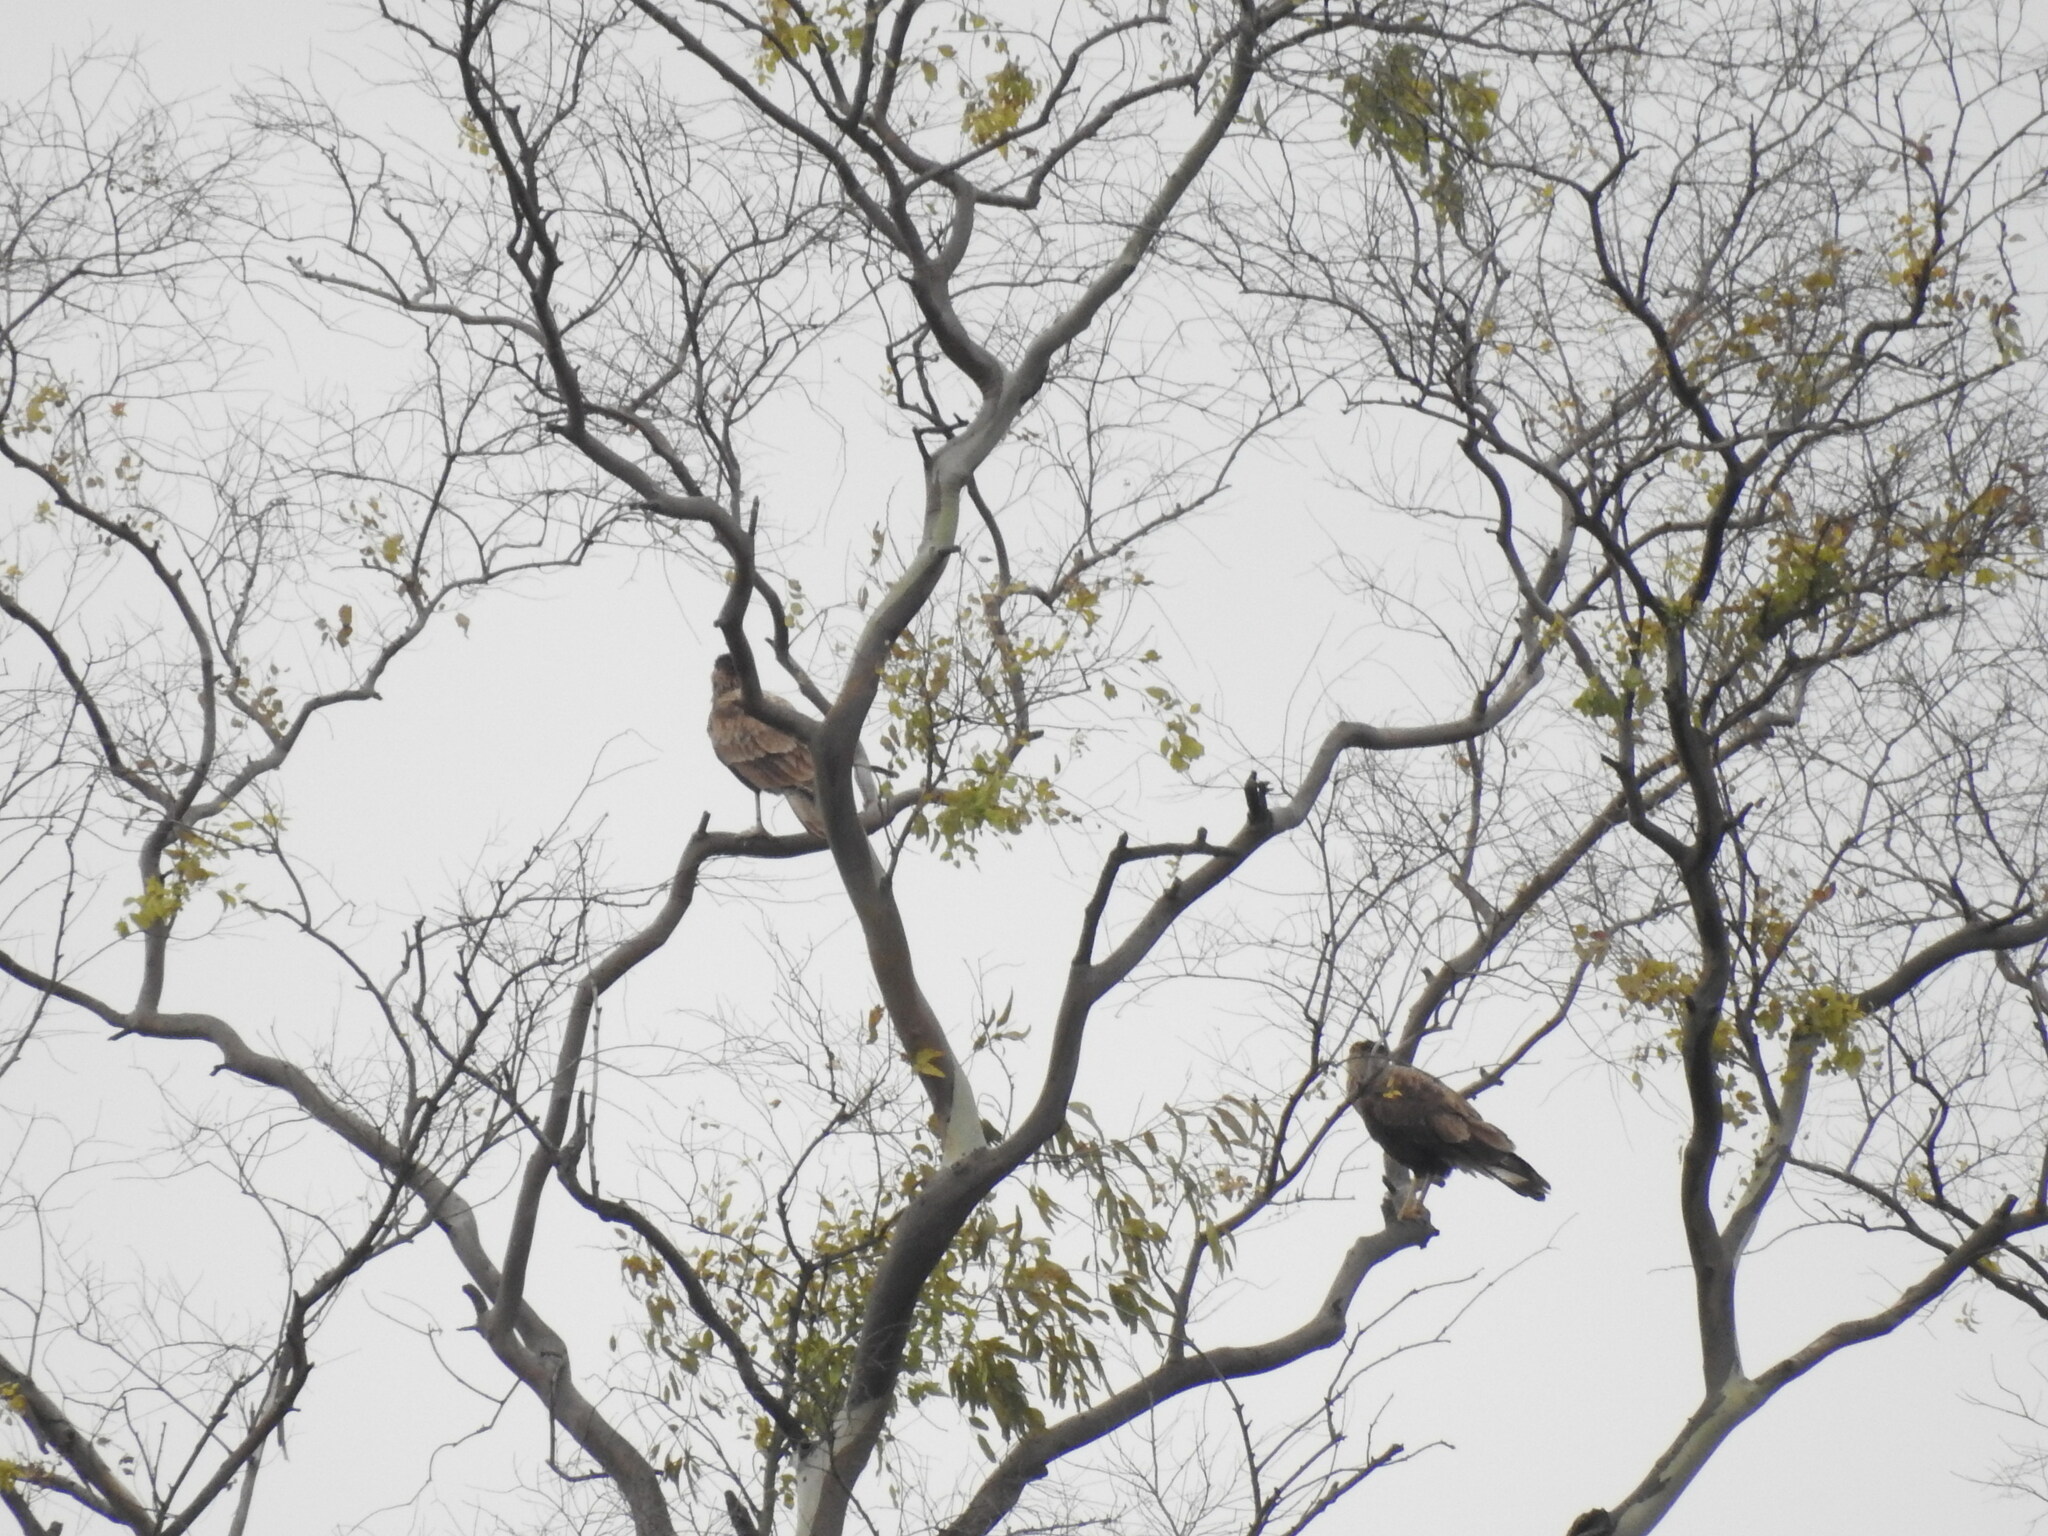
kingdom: Animalia
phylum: Chordata
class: Aves
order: Falconiformes
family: Falconidae
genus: Caracara
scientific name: Caracara plancus
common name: Southern caracara
